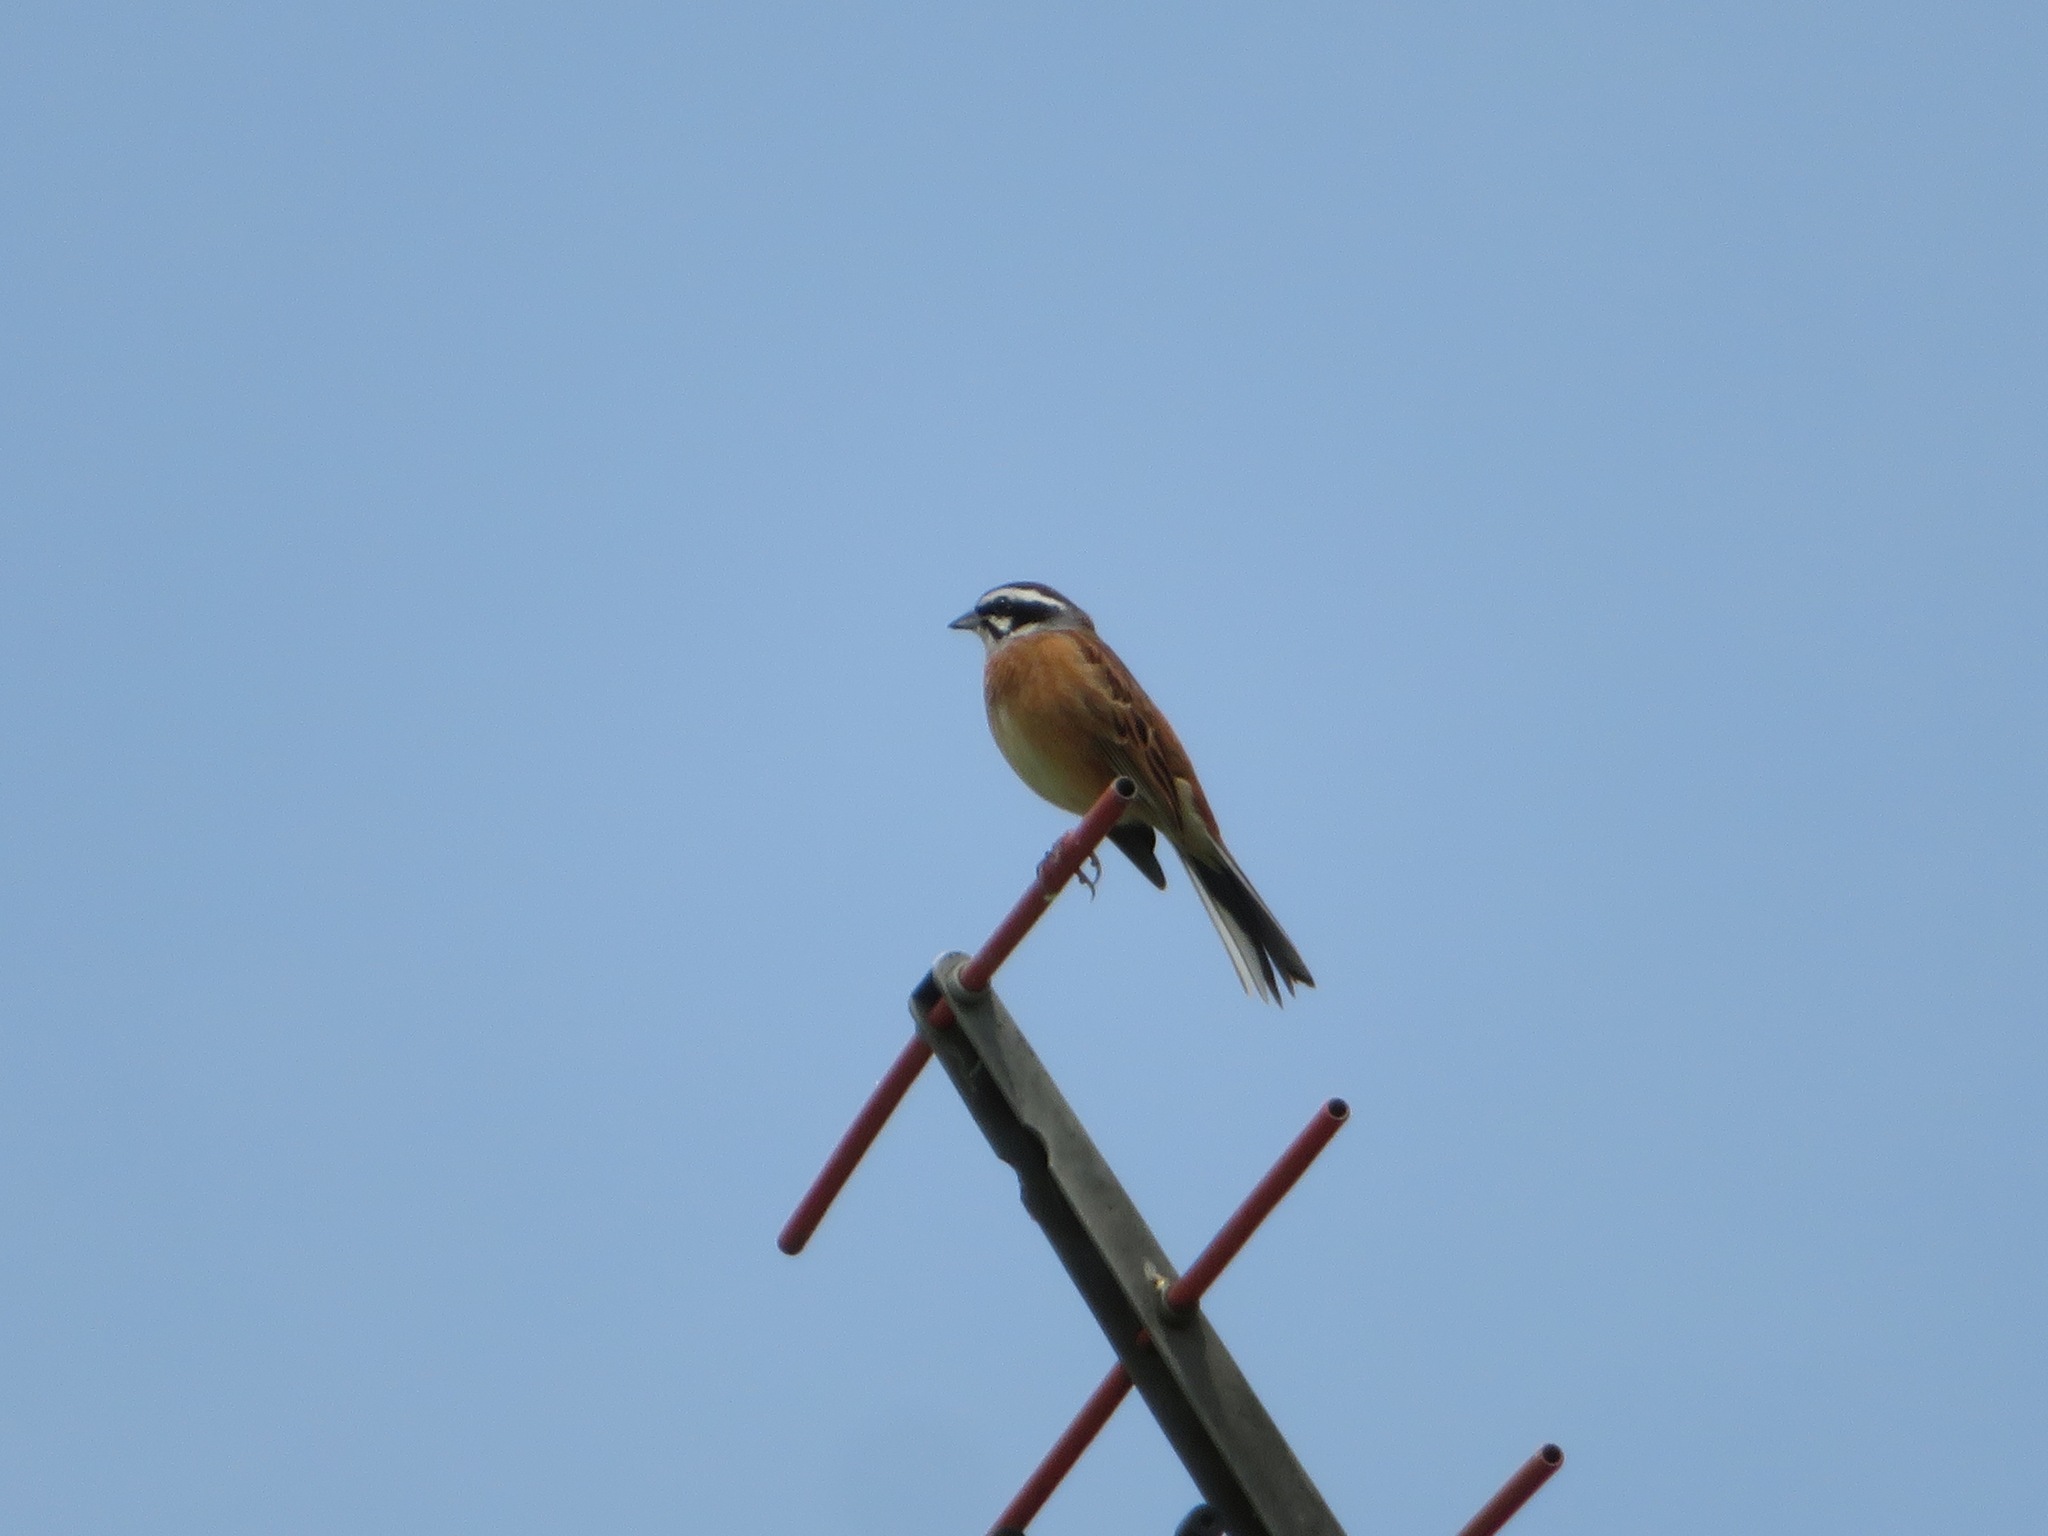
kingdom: Animalia
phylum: Chordata
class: Aves
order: Passeriformes
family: Emberizidae
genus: Emberiza
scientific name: Emberiza cioides
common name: Meadow bunting
